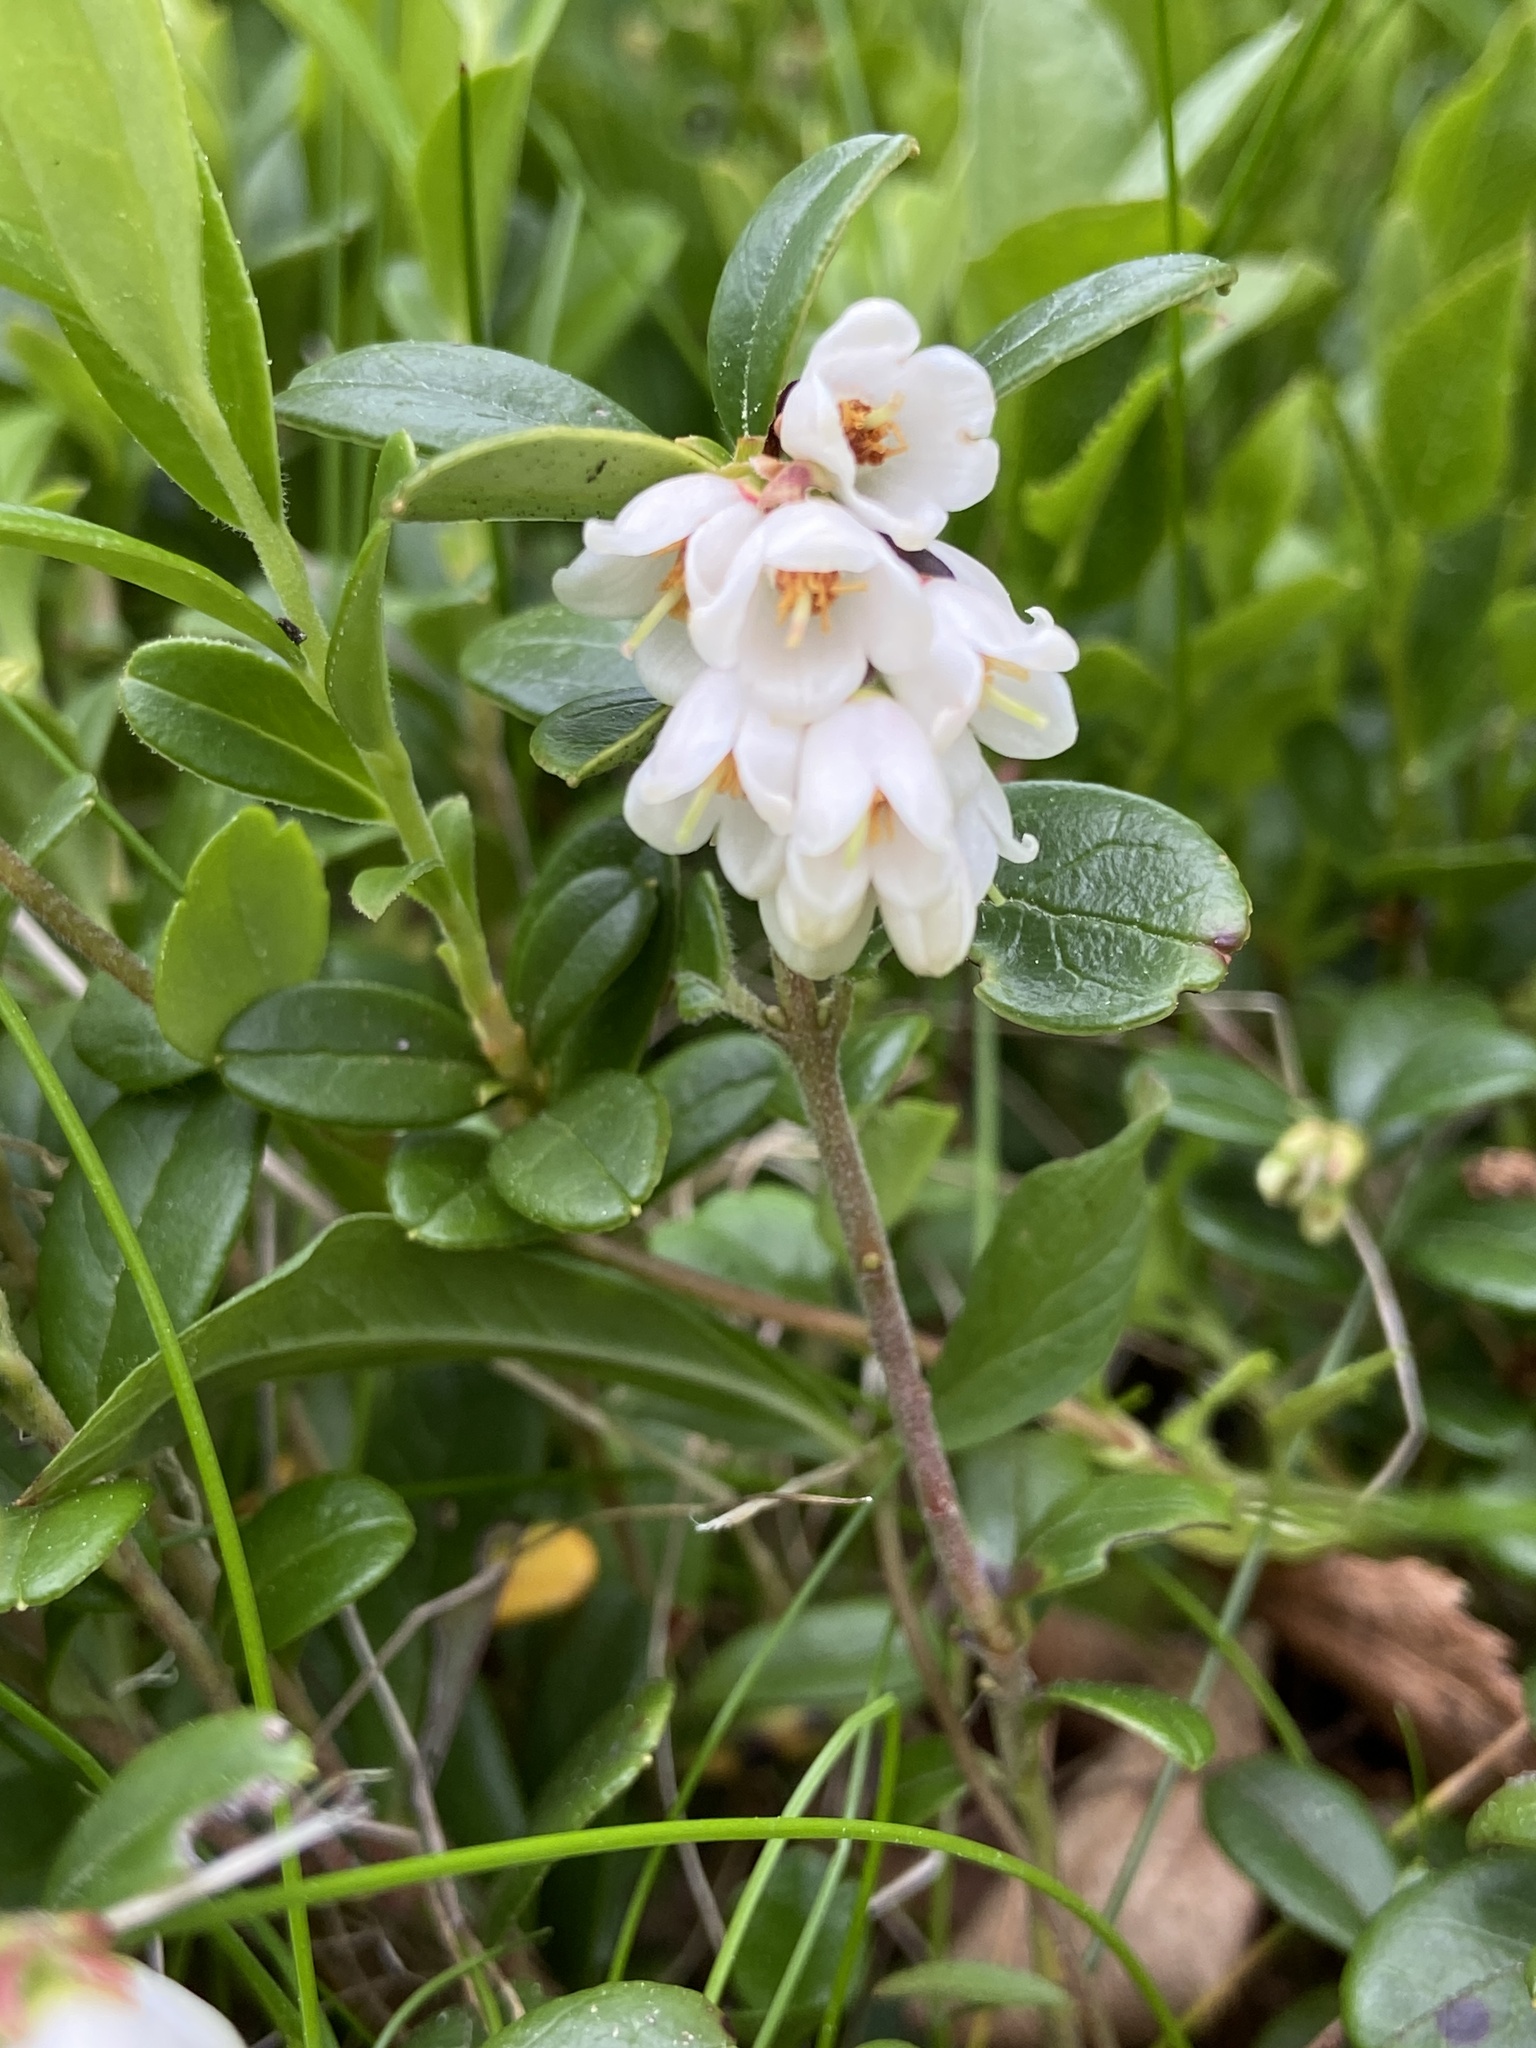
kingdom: Plantae
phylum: Tracheophyta
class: Magnoliopsida
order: Ericales
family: Ericaceae
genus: Vaccinium
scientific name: Vaccinium vitis-idaea
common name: Cowberry
